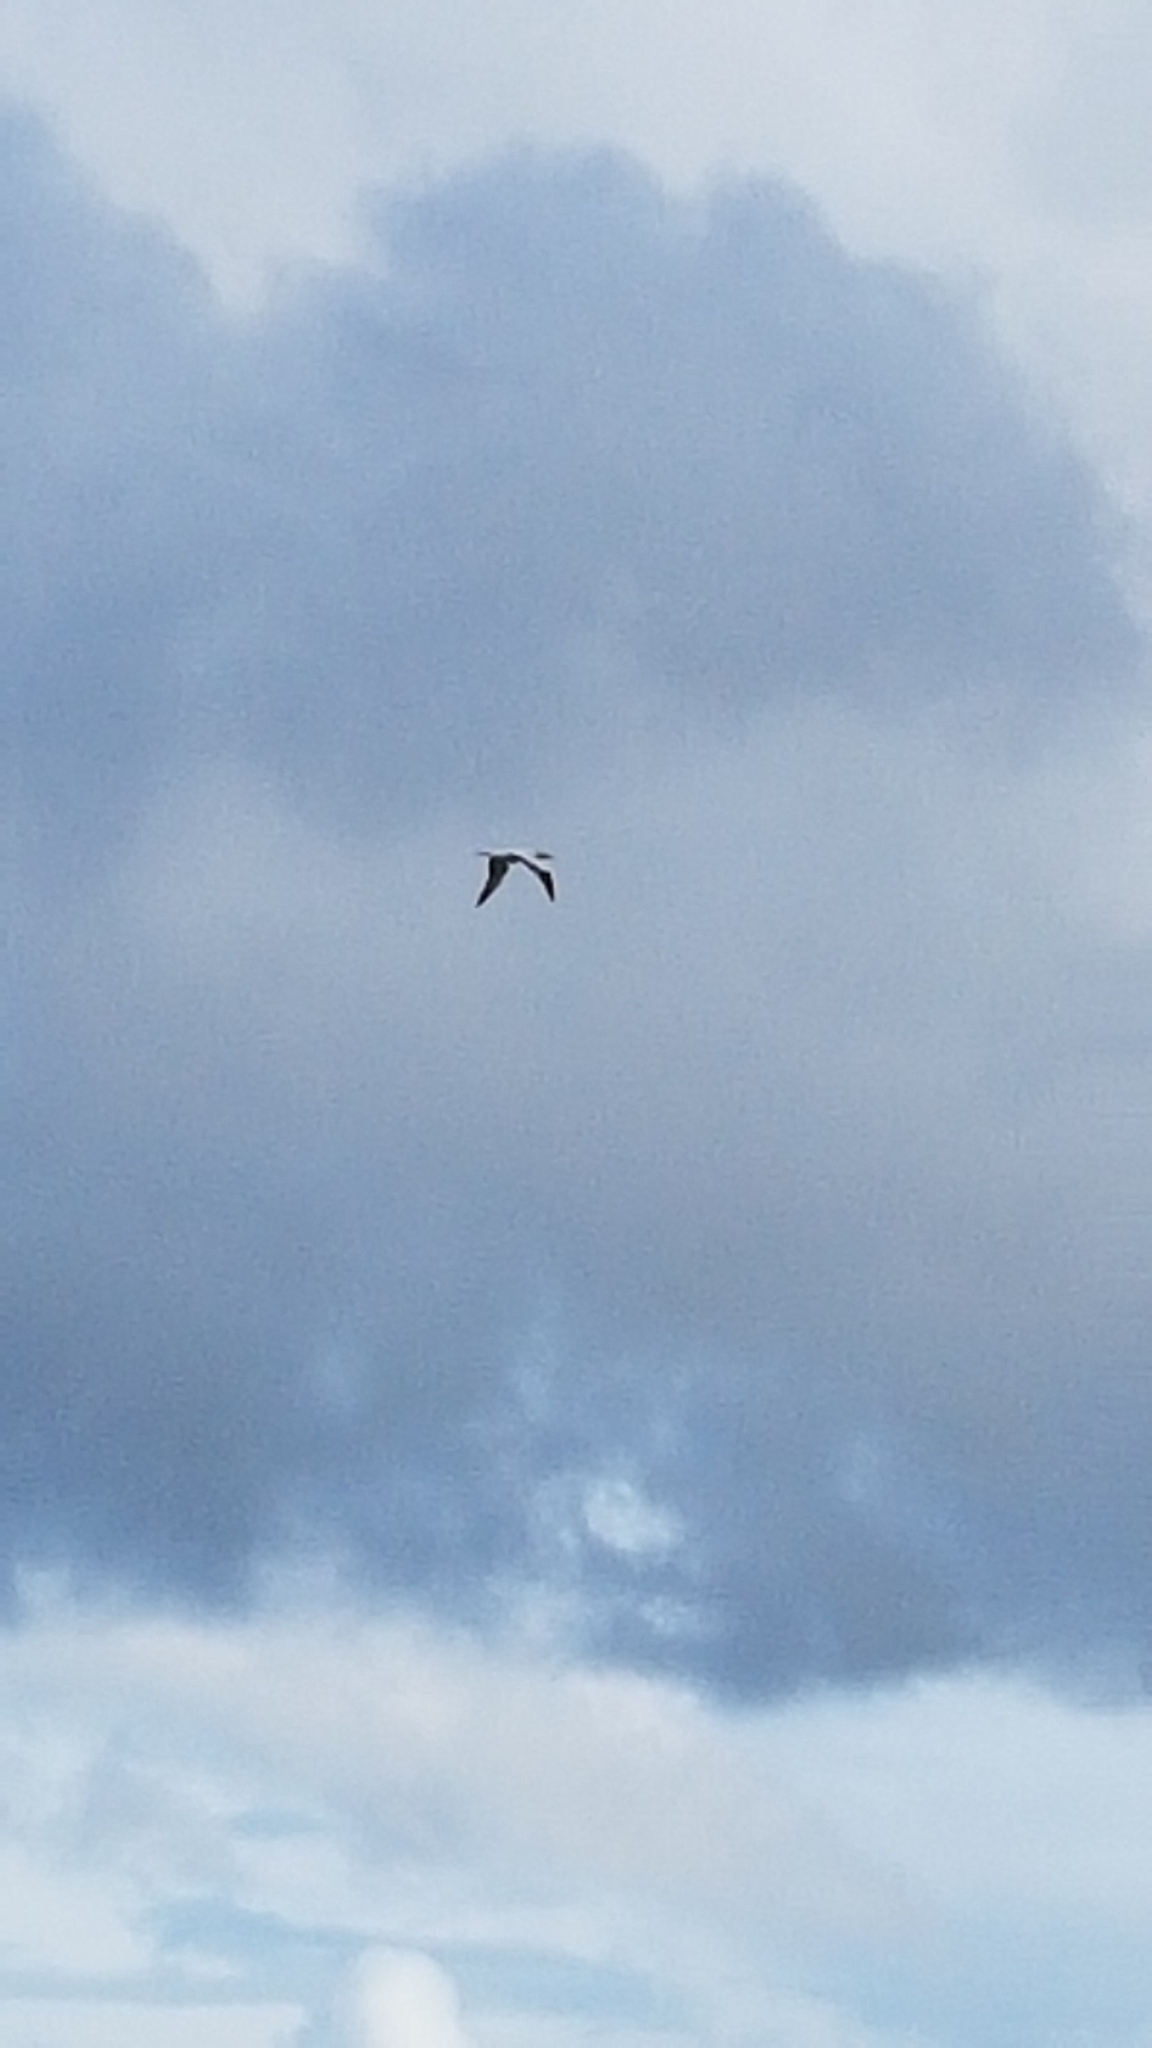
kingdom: Animalia
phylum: Chordata
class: Aves
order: Suliformes
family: Sulidae
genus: Morus
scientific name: Morus serrator
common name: Australasian gannet
